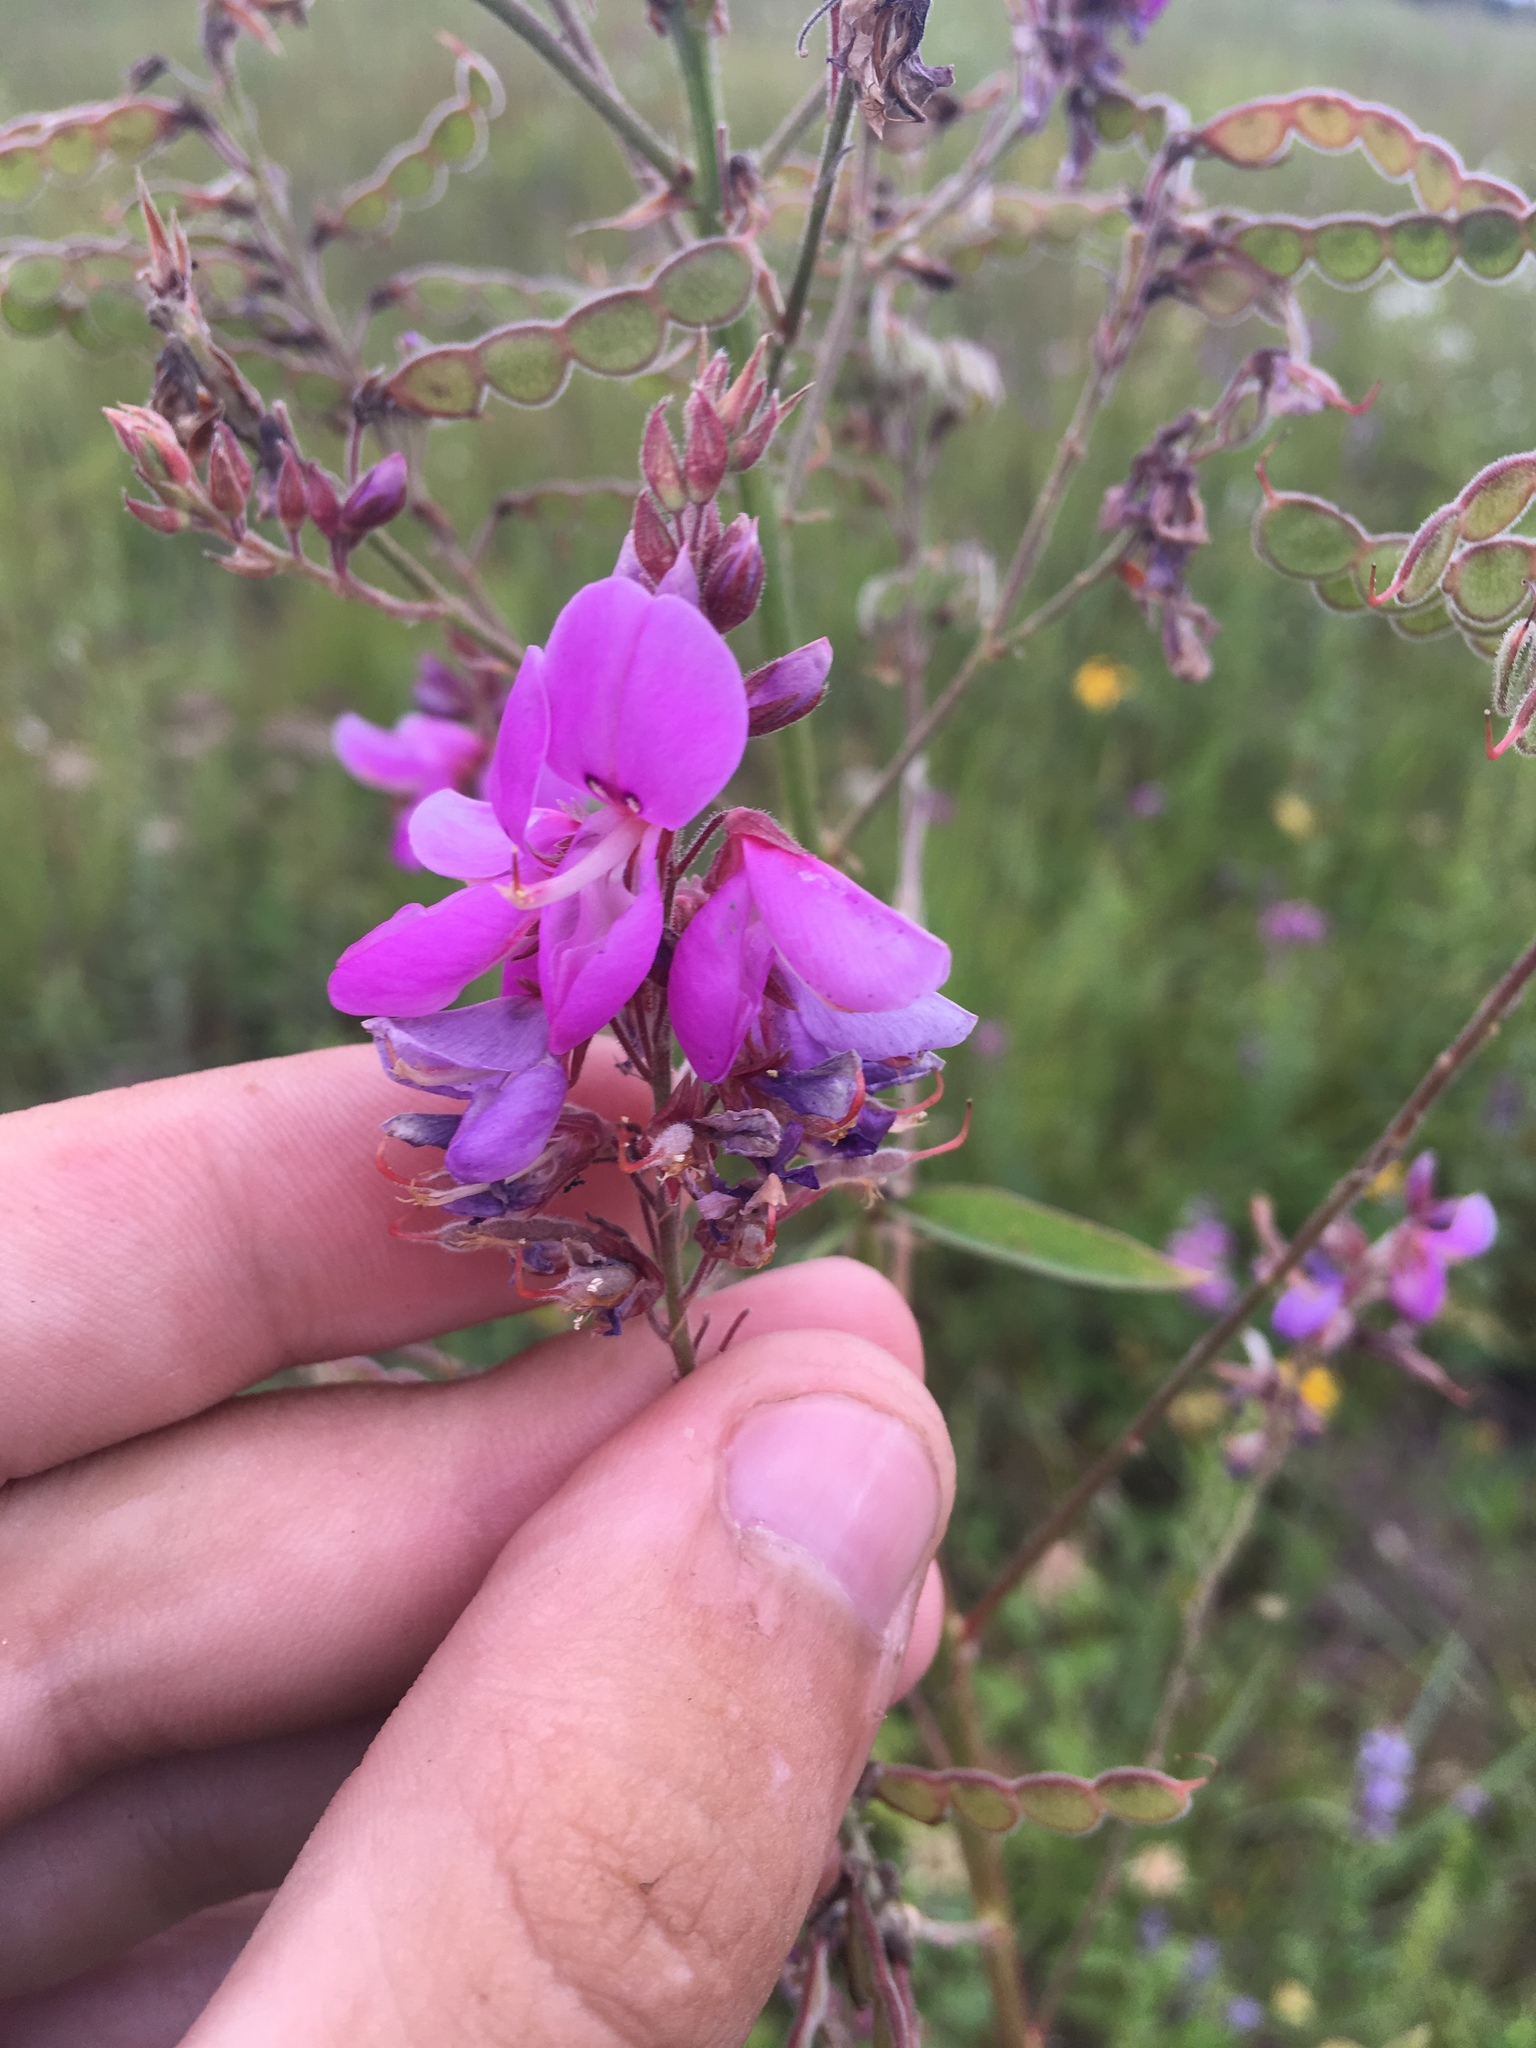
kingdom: Plantae
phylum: Tracheophyta
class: Magnoliopsida
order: Fabales
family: Fabaceae
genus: Desmodium
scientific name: Desmodium canadense
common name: Canada tick-trefoil
